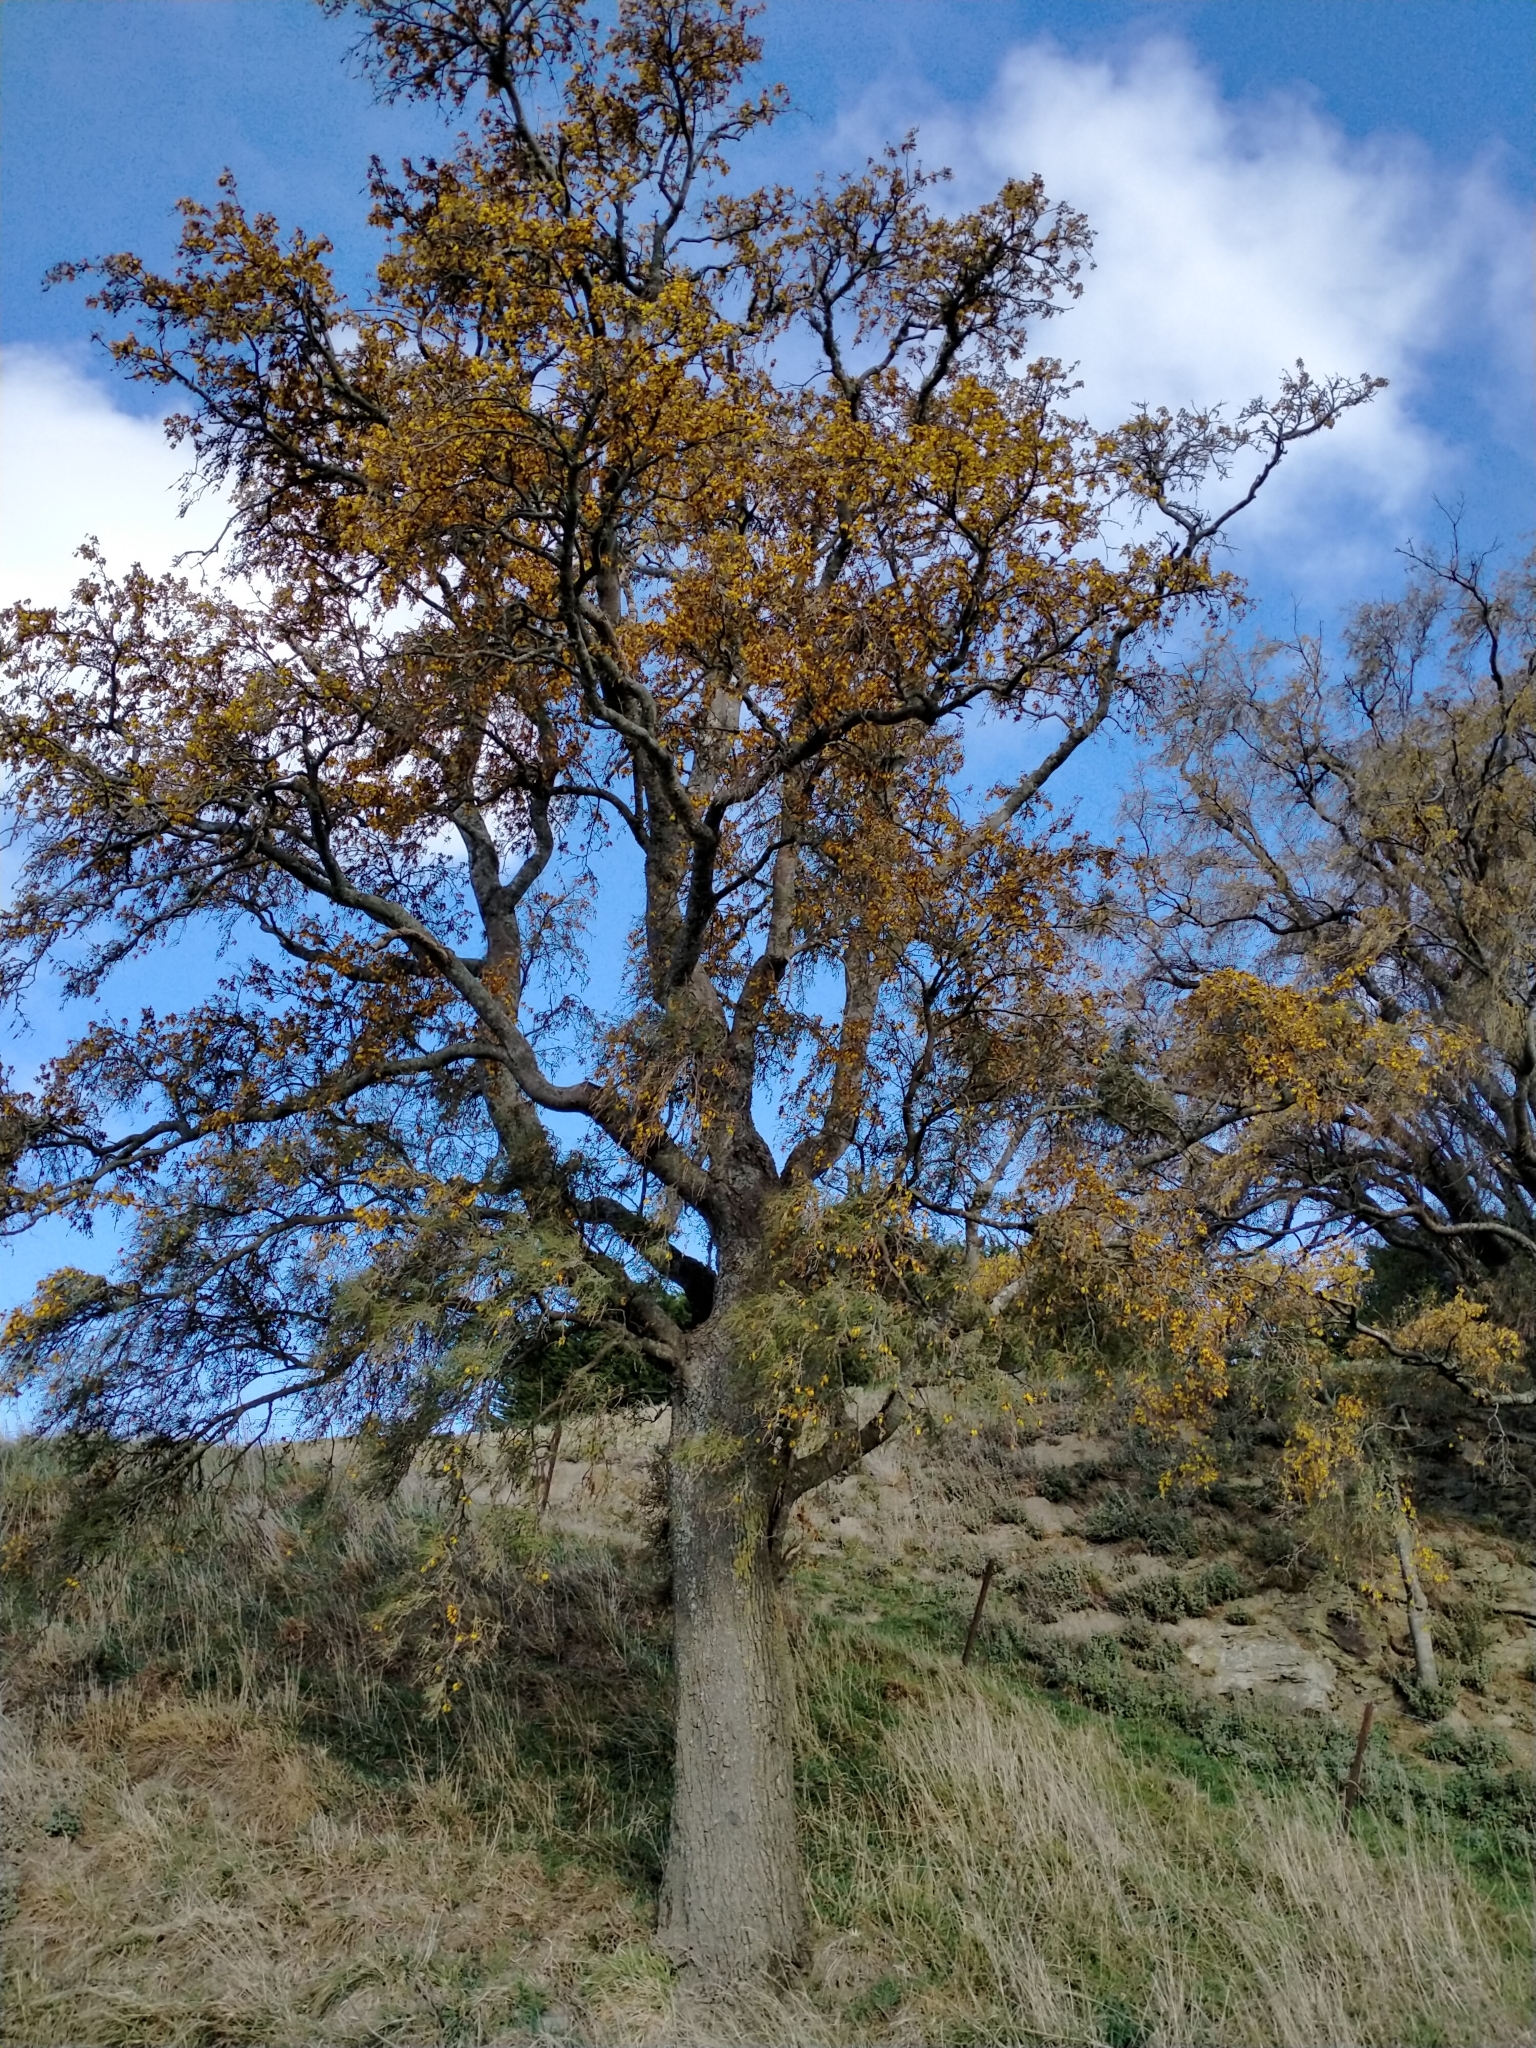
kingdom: Plantae
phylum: Tracheophyta
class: Magnoliopsida
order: Fabales
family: Fabaceae
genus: Sophora
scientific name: Sophora microphylla
